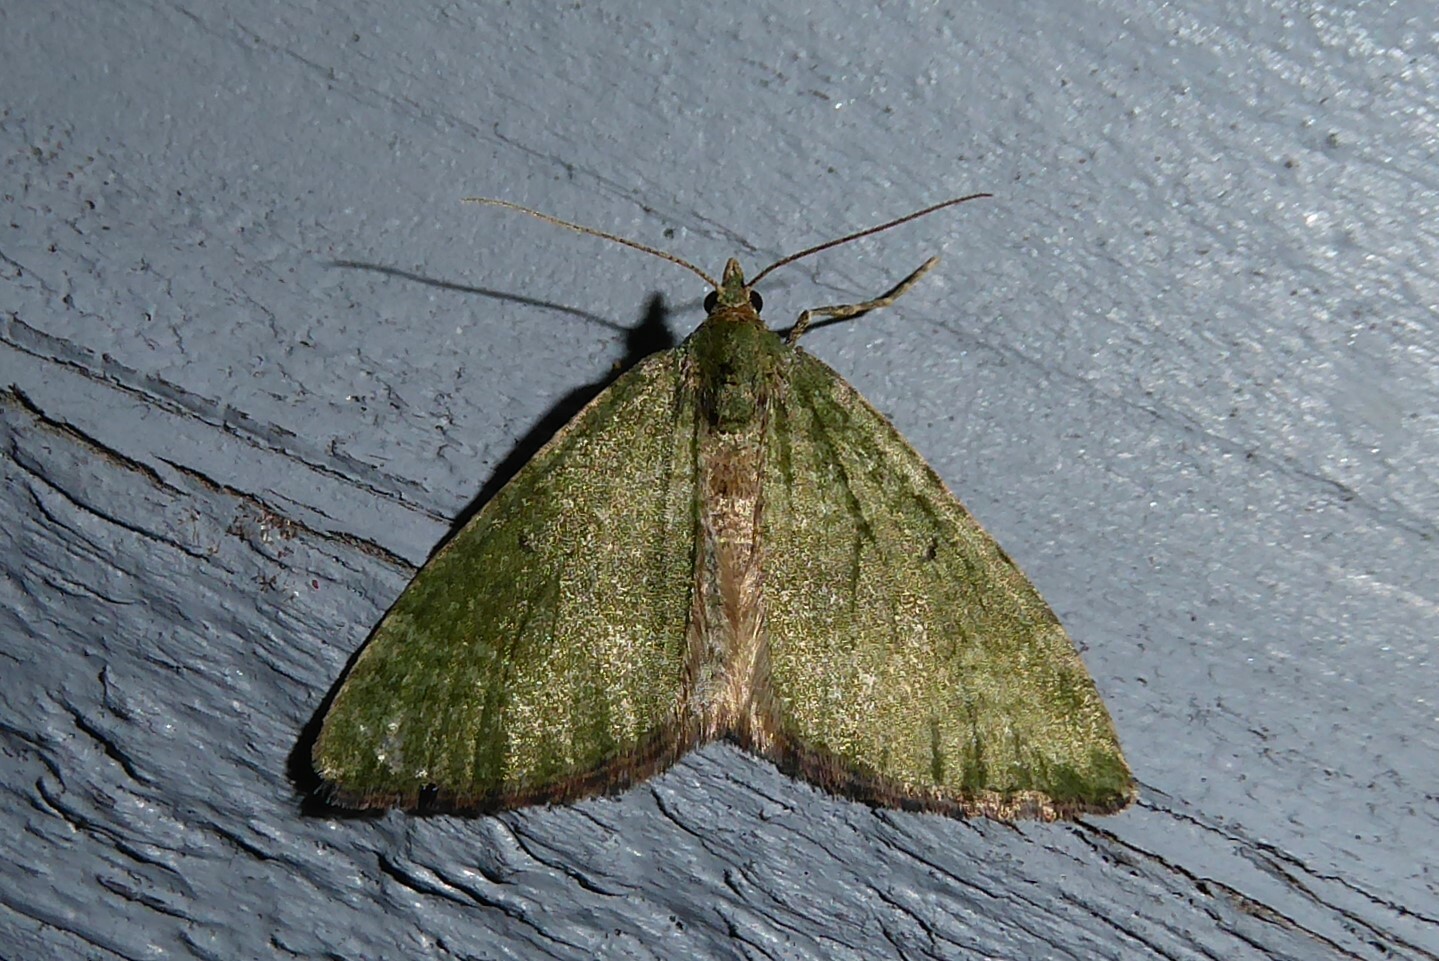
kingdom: Animalia
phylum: Arthropoda
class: Insecta
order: Lepidoptera
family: Geometridae
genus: Epyaxa
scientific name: Epyaxa rosearia
